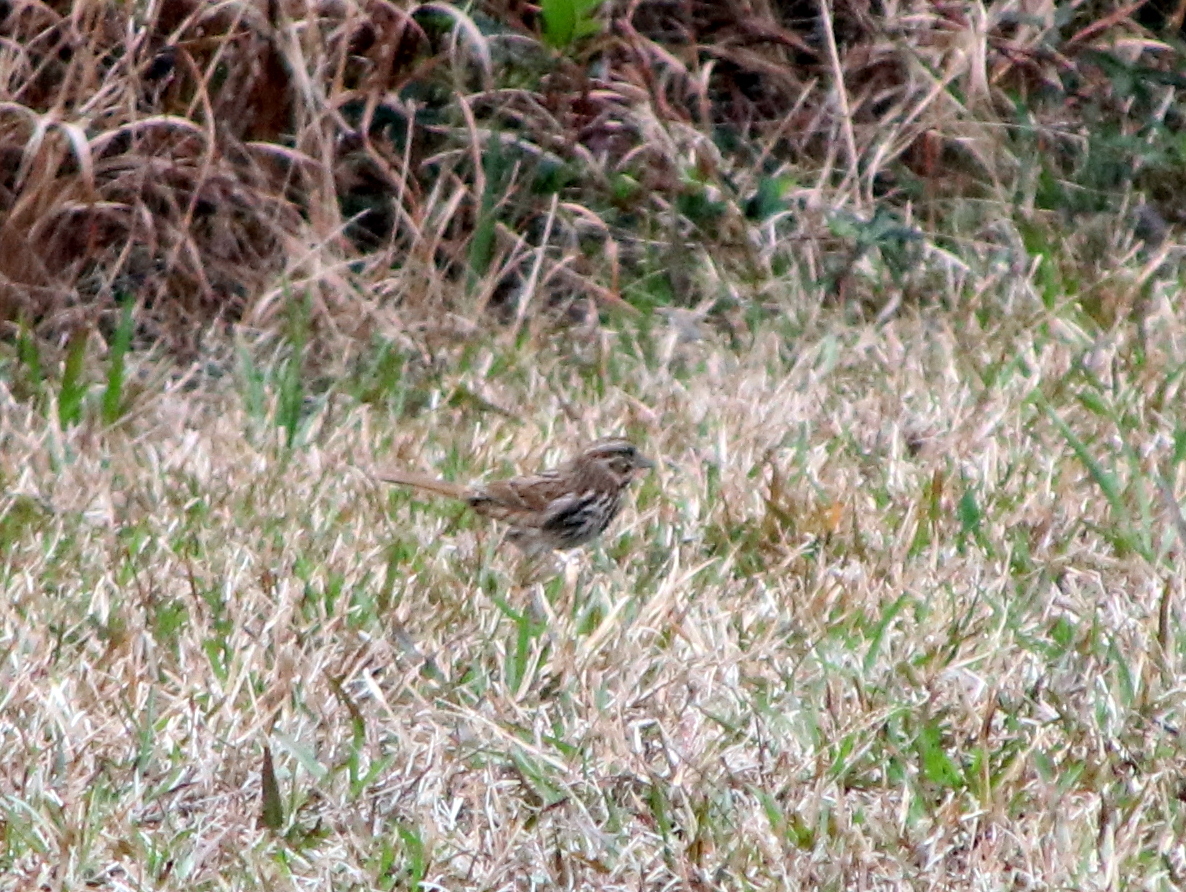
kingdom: Animalia
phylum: Chordata
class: Aves
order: Passeriformes
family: Passerellidae
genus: Melospiza
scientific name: Melospiza melodia
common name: Song sparrow
